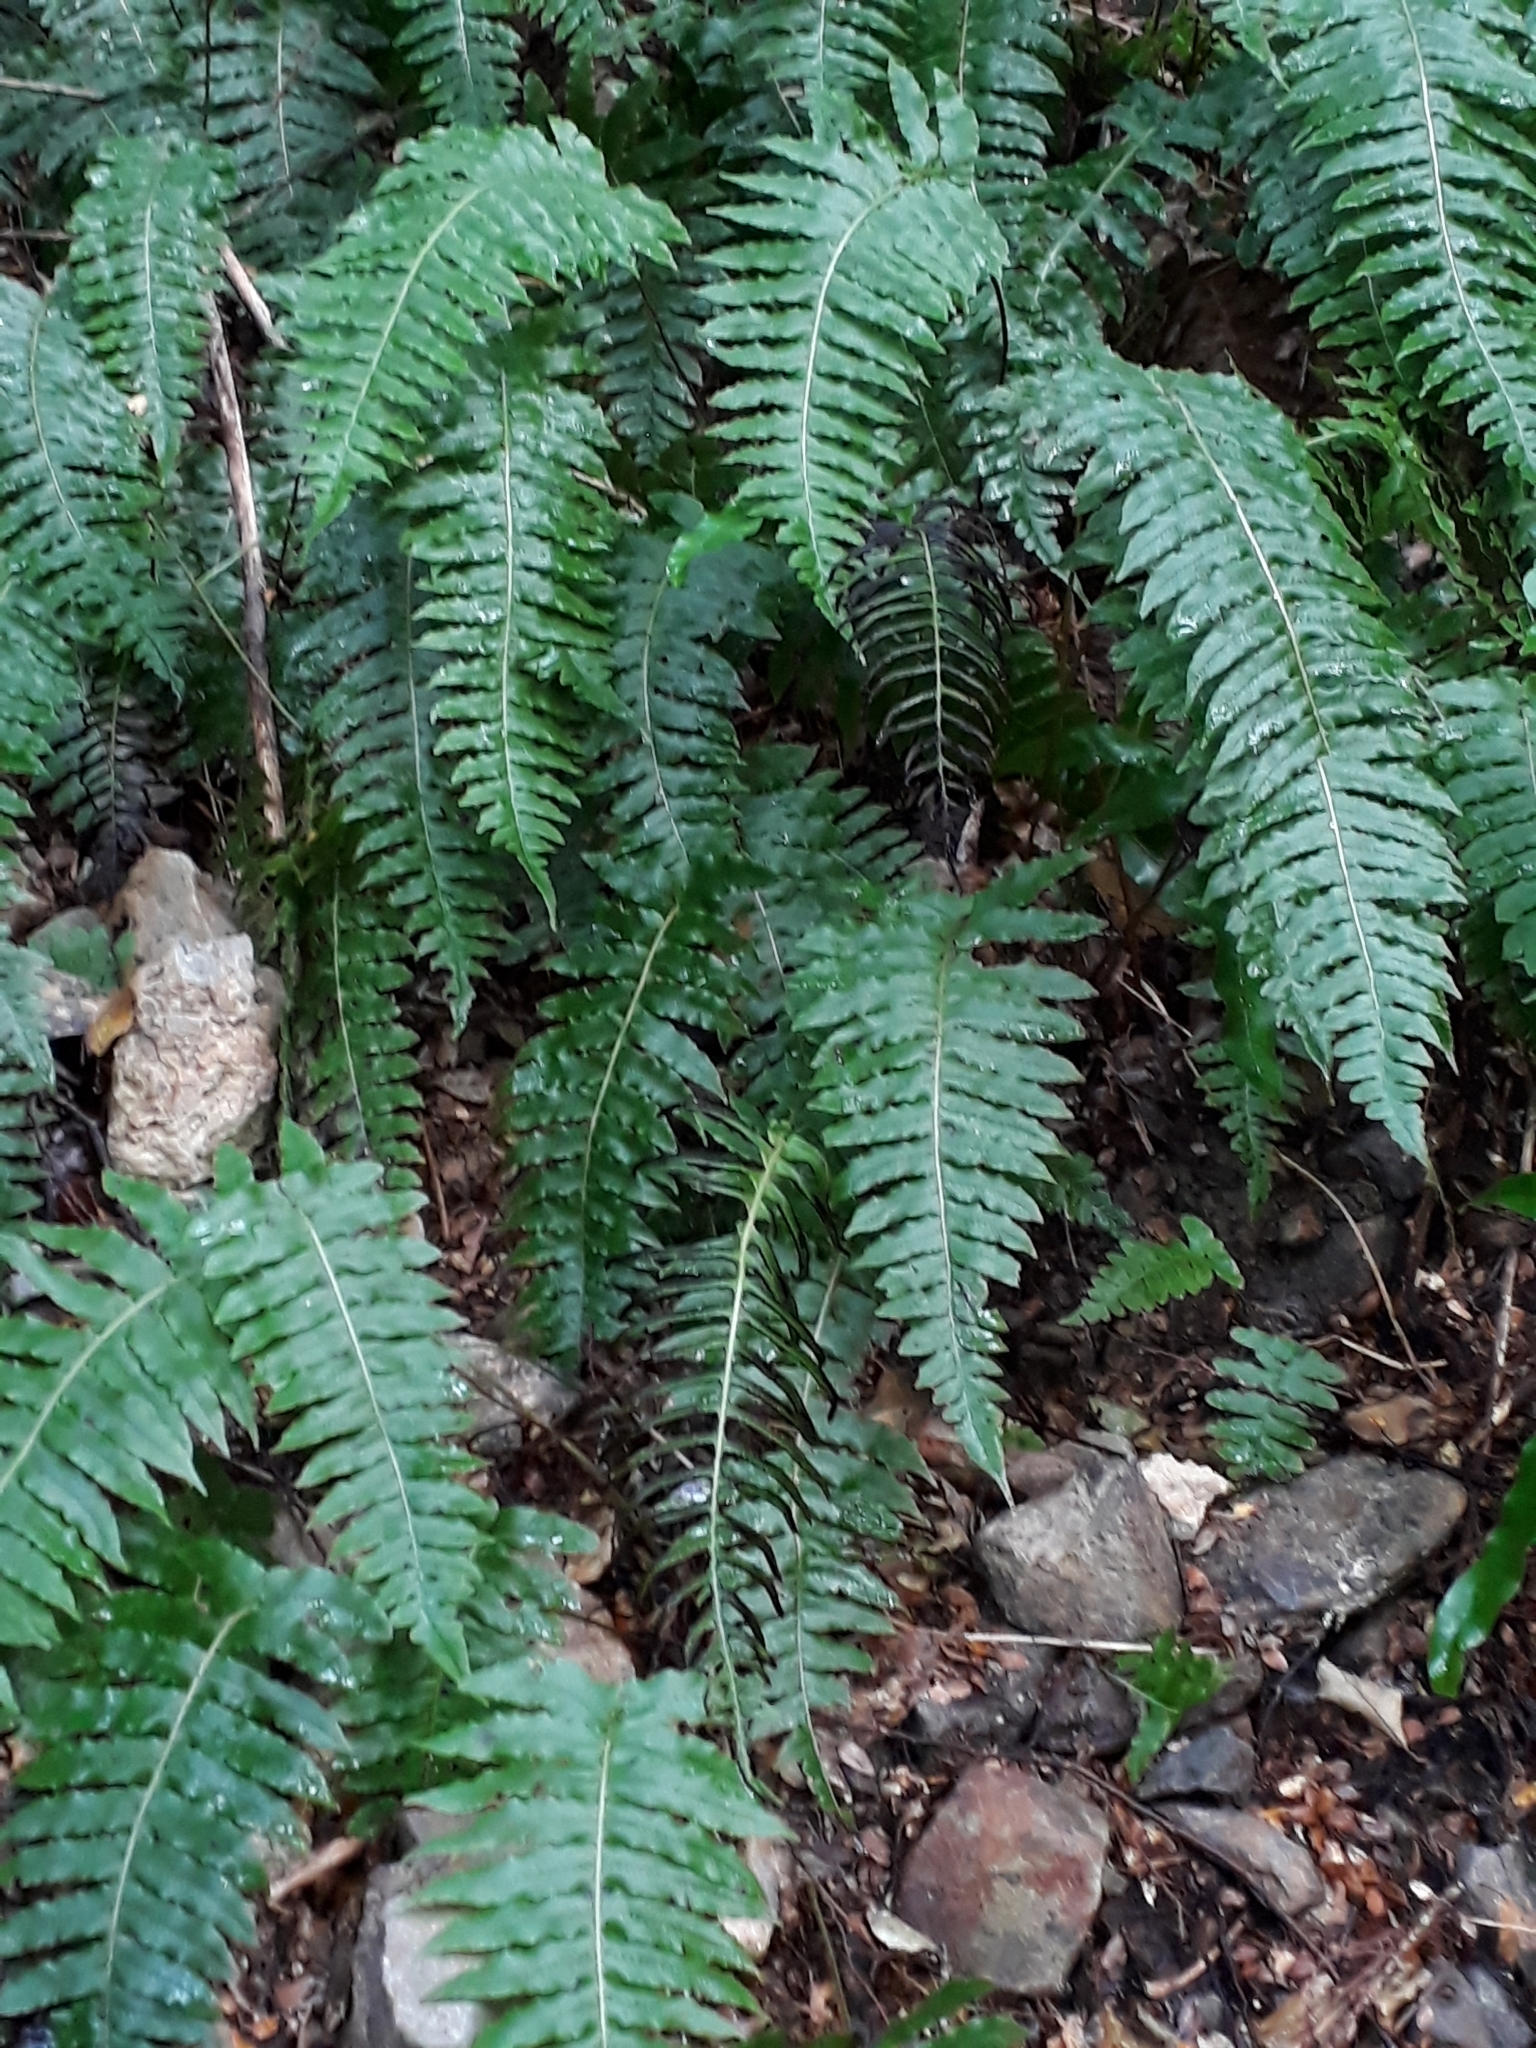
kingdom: Plantae
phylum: Tracheophyta
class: Polypodiopsida
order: Polypodiales
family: Blechnaceae
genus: Cranfillia
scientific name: Cranfillia vulcanica
